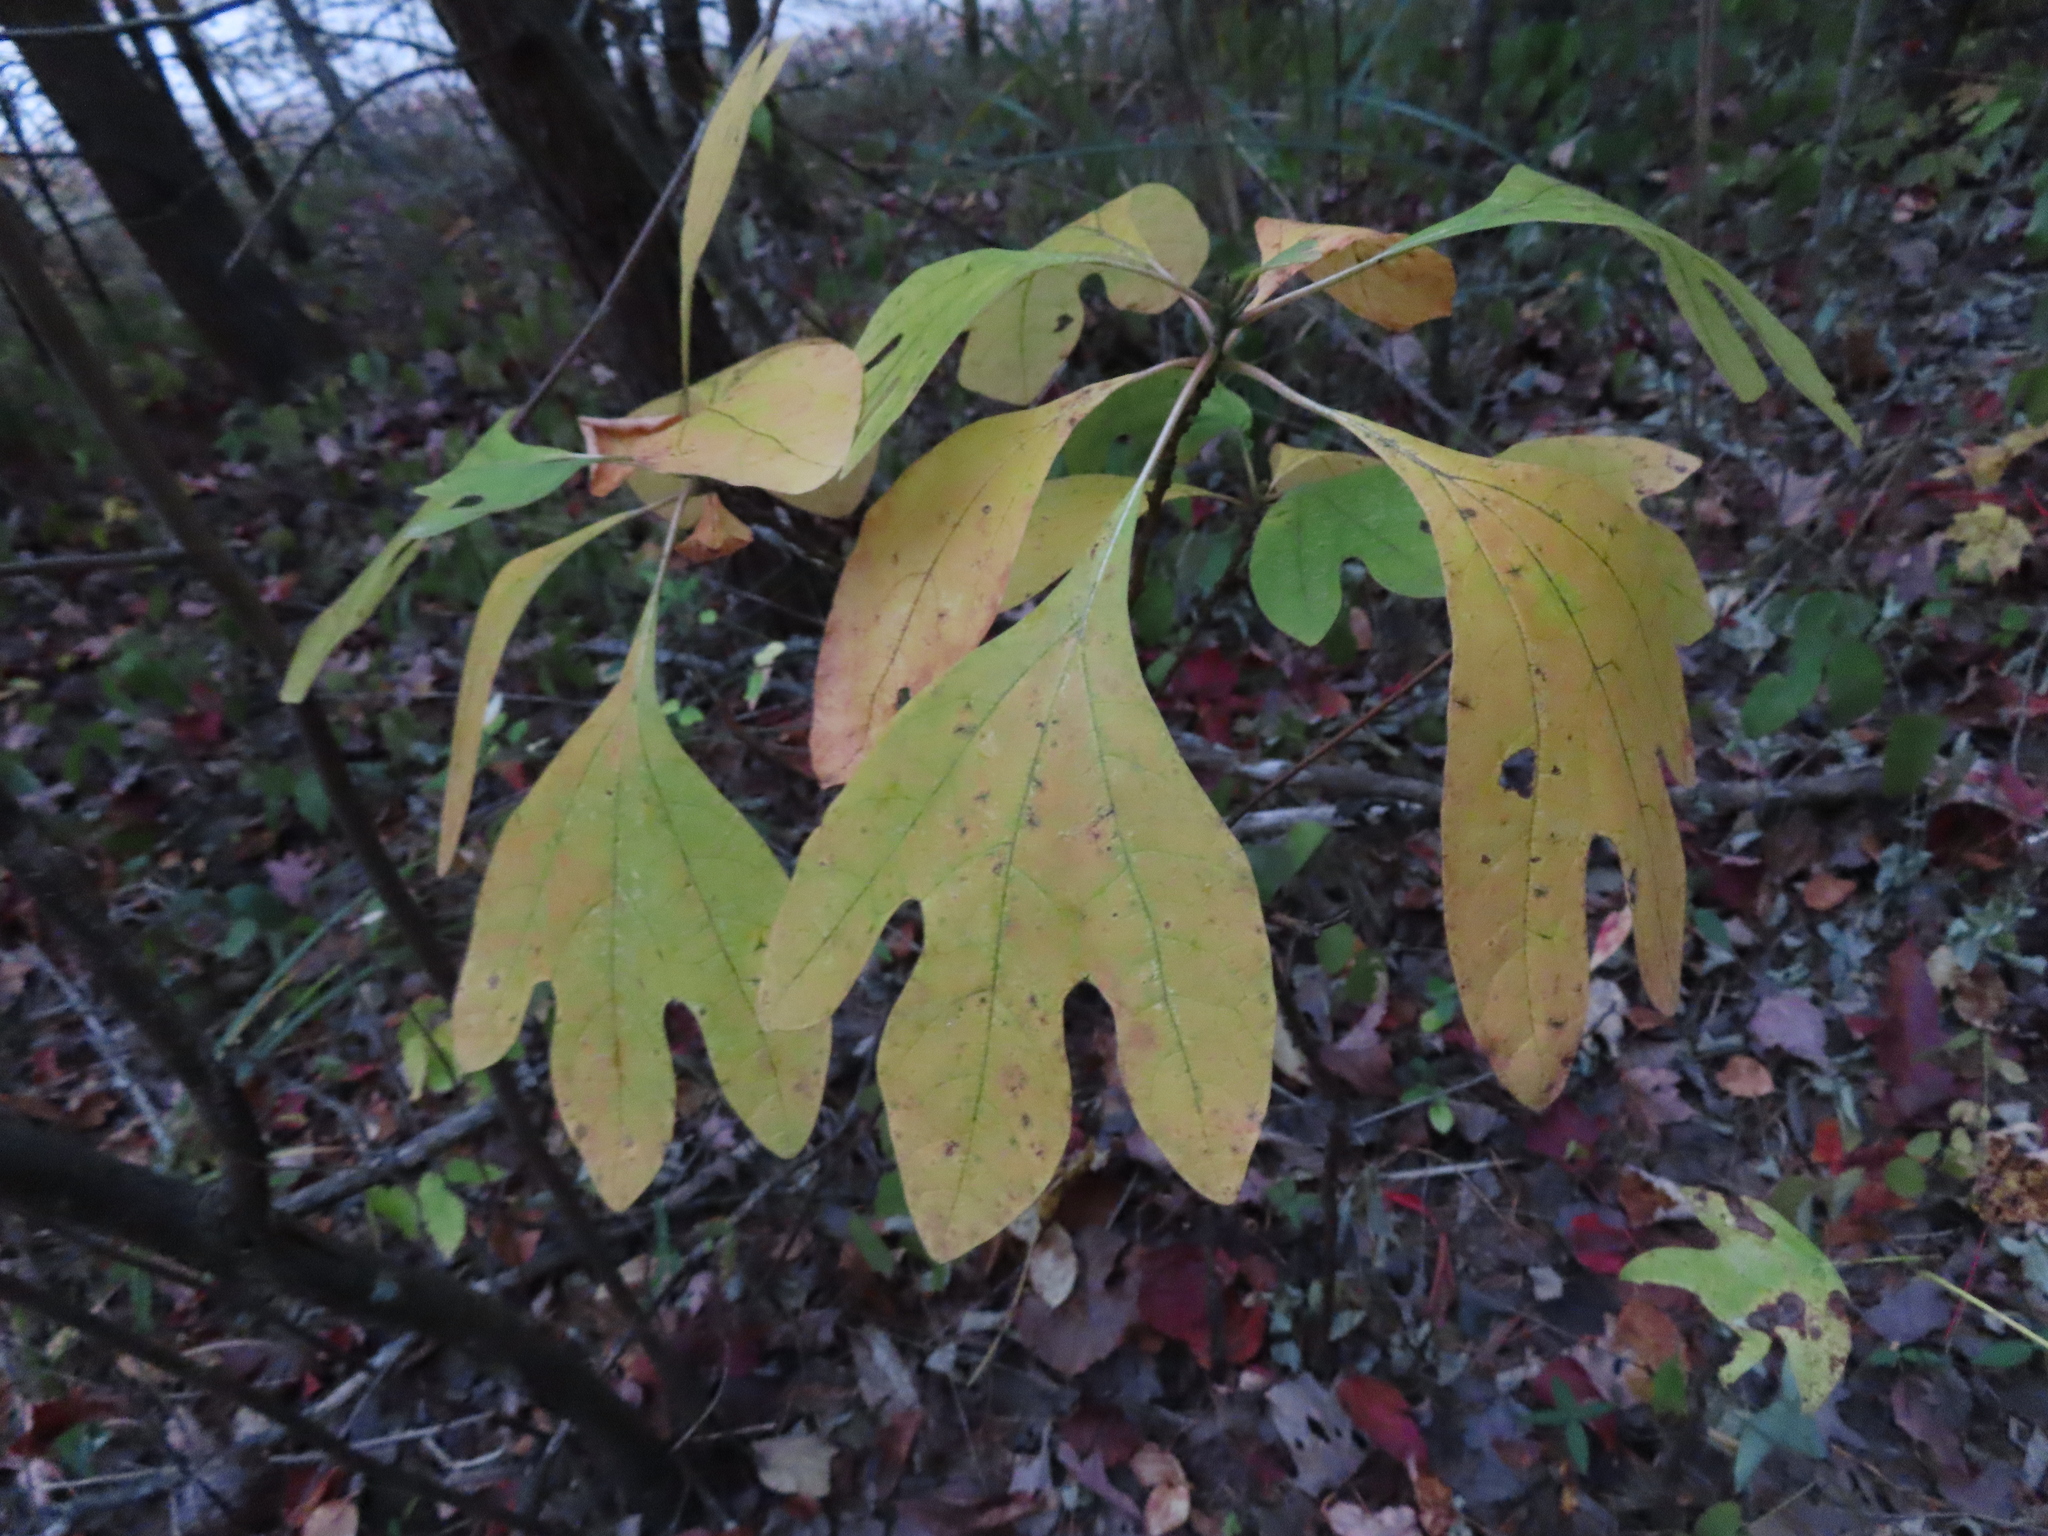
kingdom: Plantae
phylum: Tracheophyta
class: Magnoliopsida
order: Laurales
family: Lauraceae
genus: Sassafras
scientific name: Sassafras albidum
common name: Sassafras
